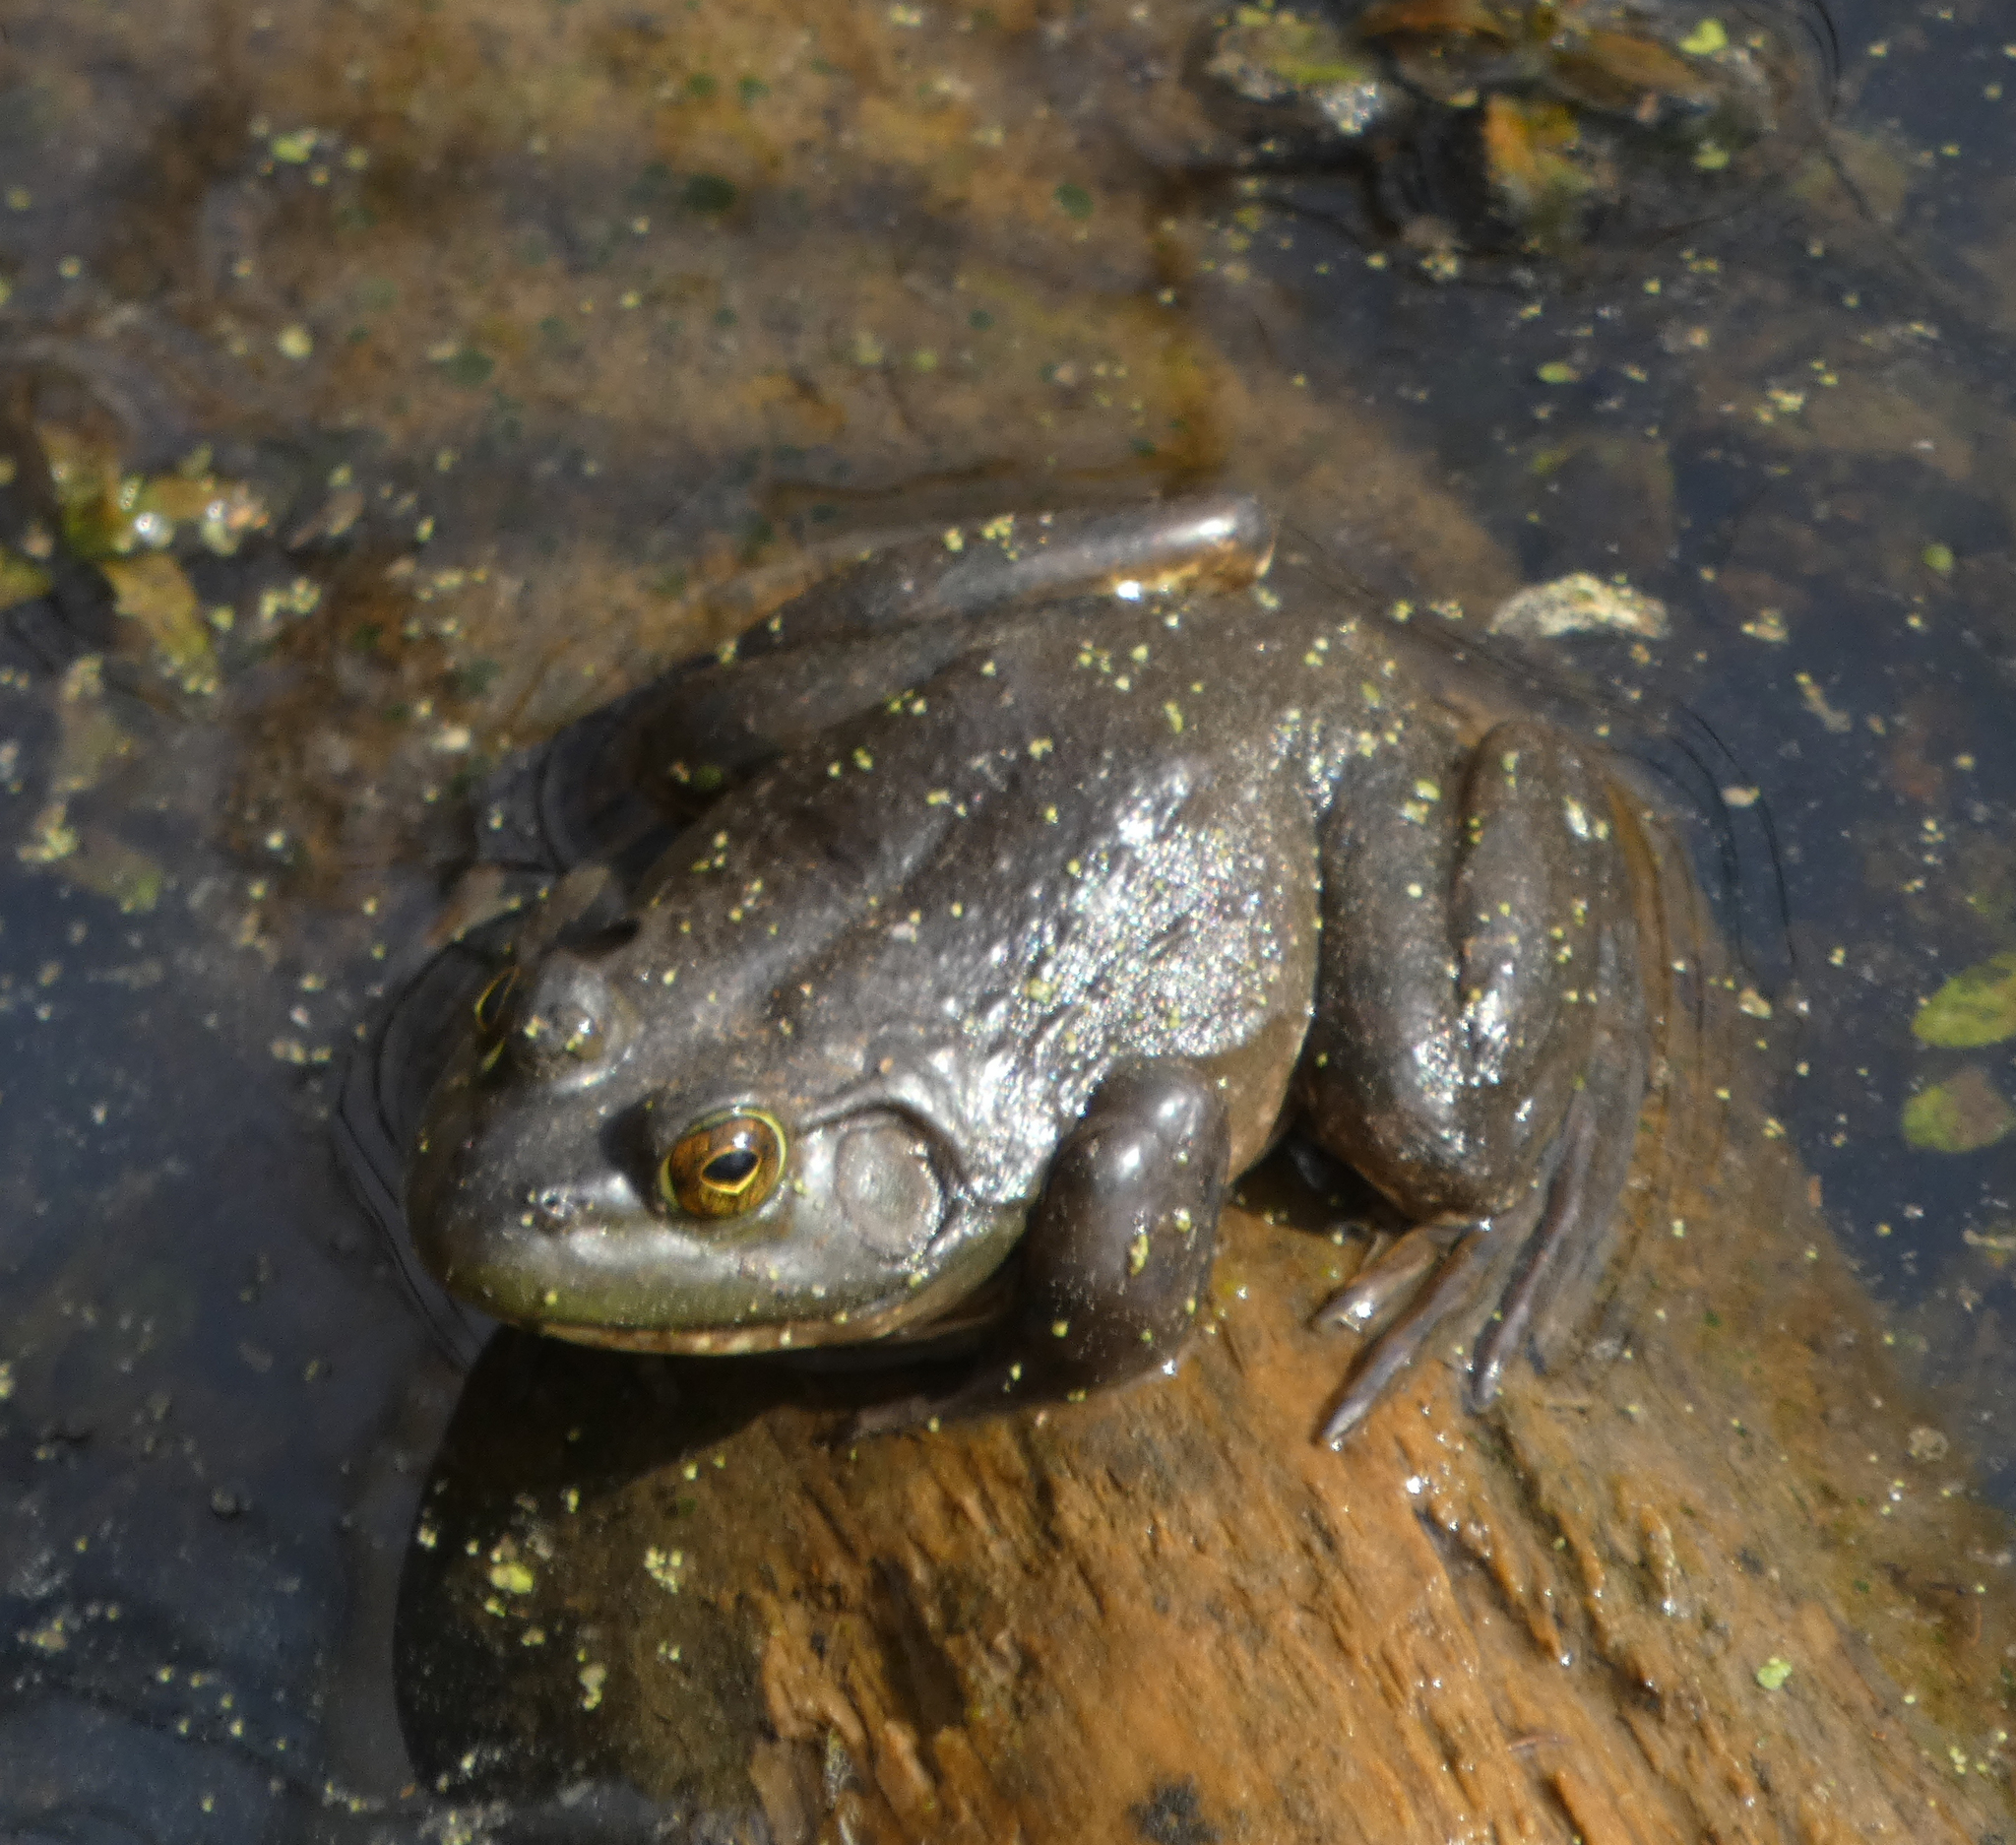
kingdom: Animalia
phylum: Chordata
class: Amphibia
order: Anura
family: Ranidae
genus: Lithobates
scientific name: Lithobates catesbeianus
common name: American bullfrog
